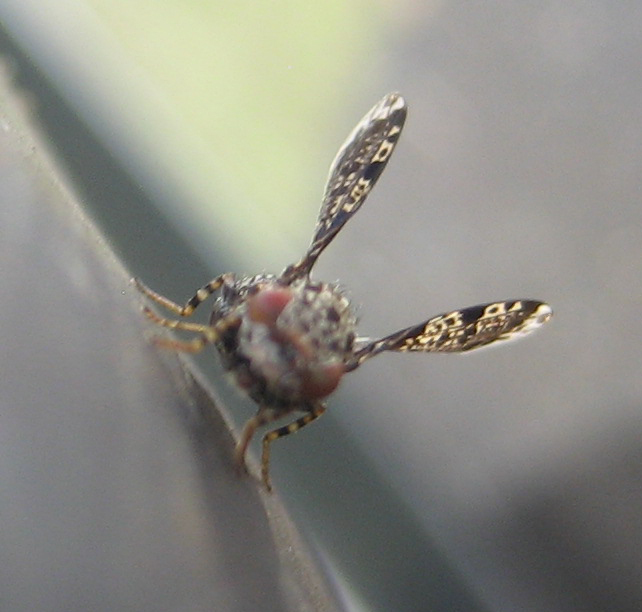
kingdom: Animalia
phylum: Arthropoda
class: Insecta
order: Diptera
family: Ulidiidae
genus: Callopistromyia
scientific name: Callopistromyia annulipes
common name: Peacock fly
